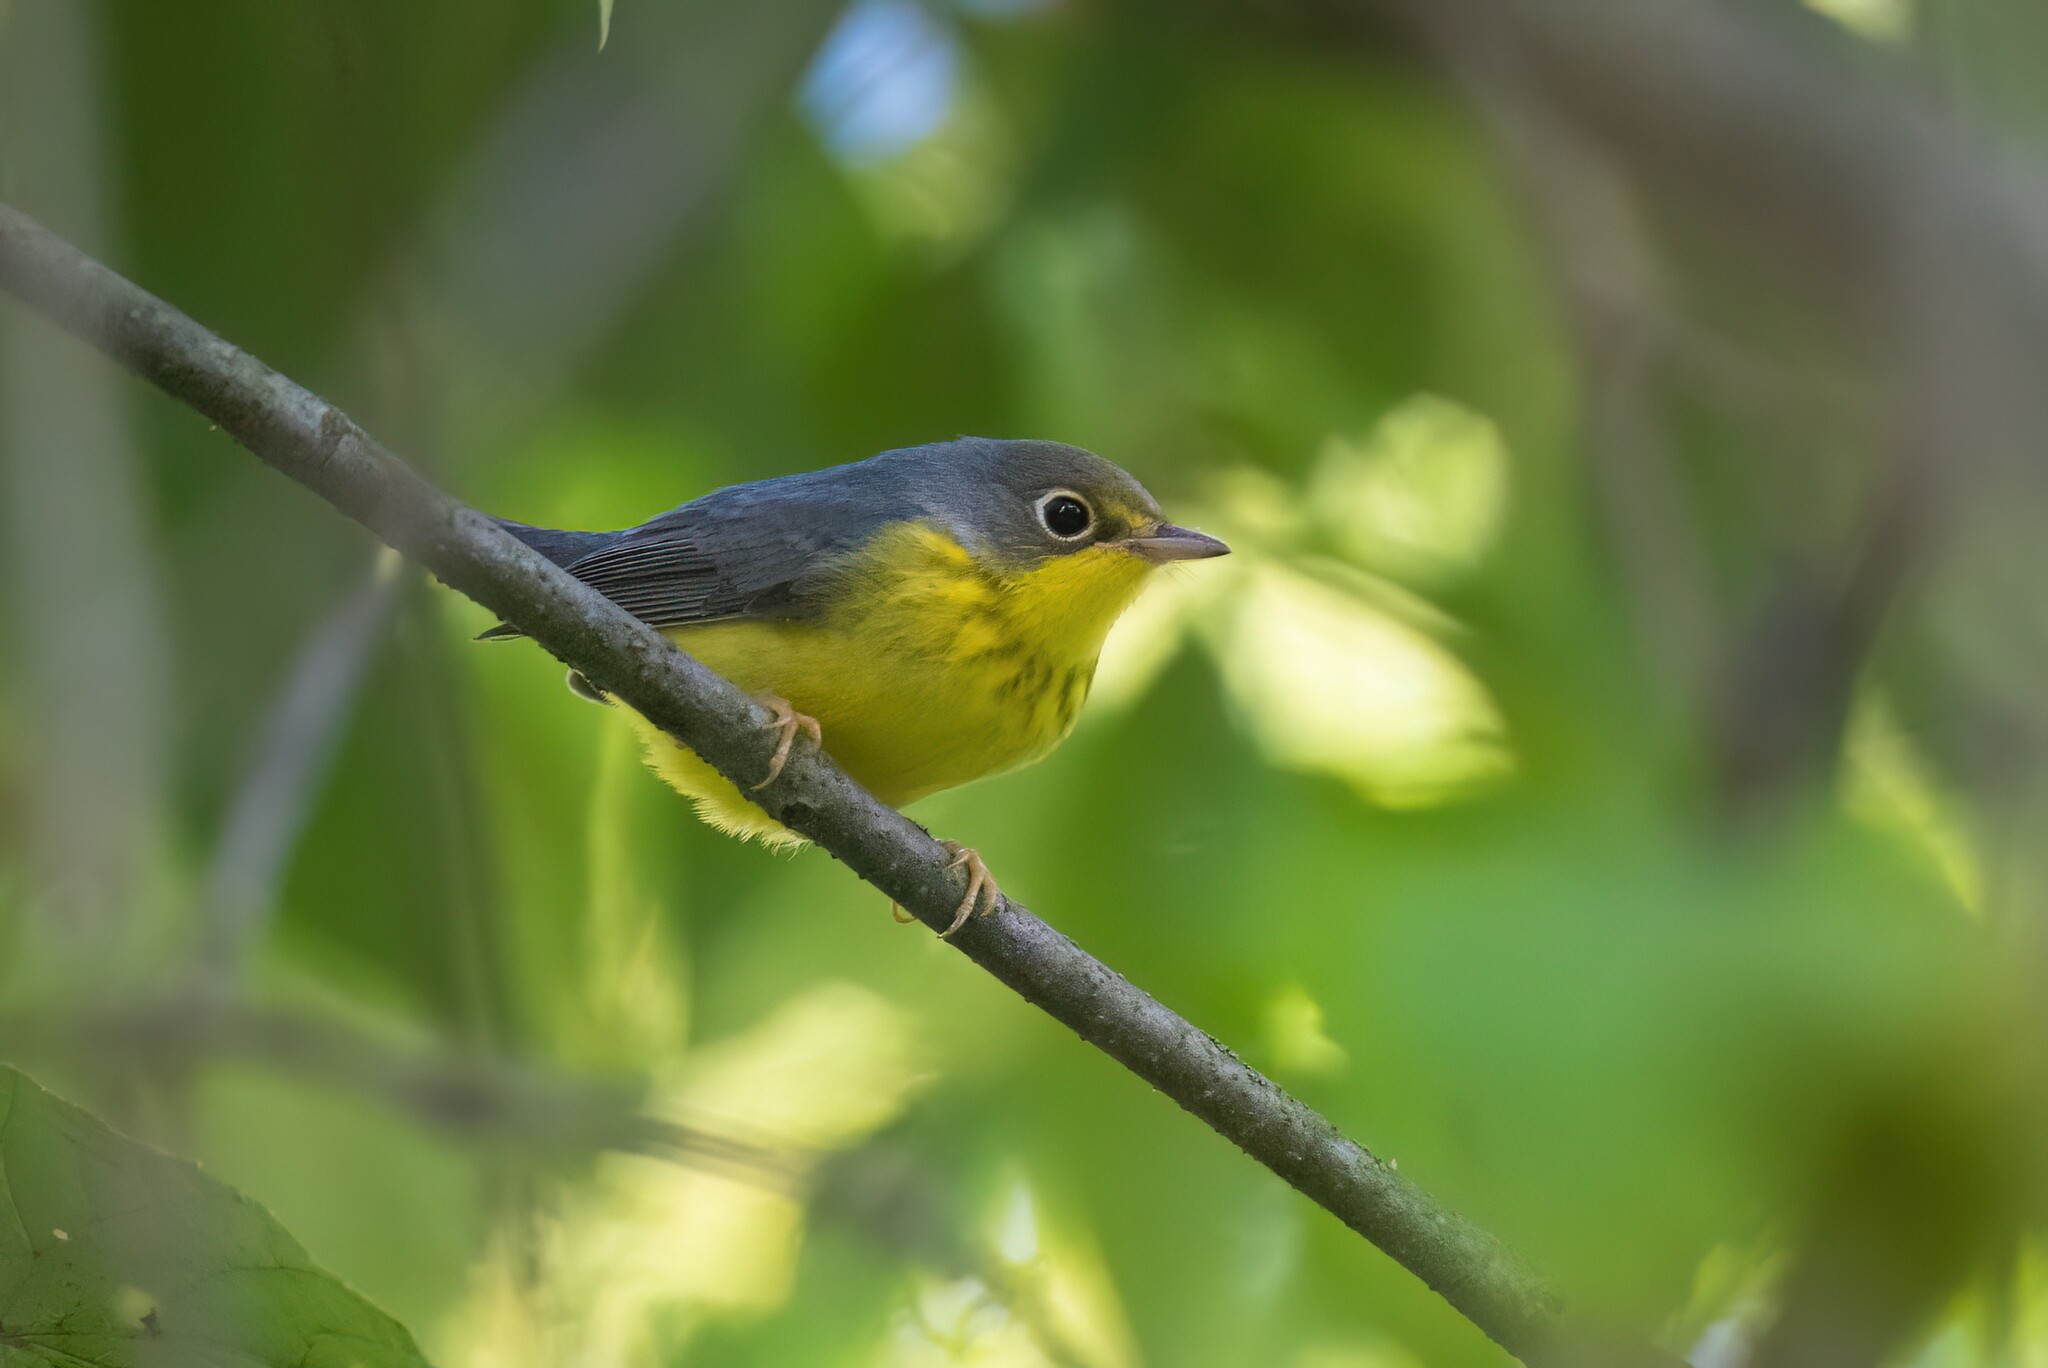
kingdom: Animalia
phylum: Chordata
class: Aves
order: Passeriformes
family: Parulidae
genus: Cardellina
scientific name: Cardellina canadensis
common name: Canada warbler
